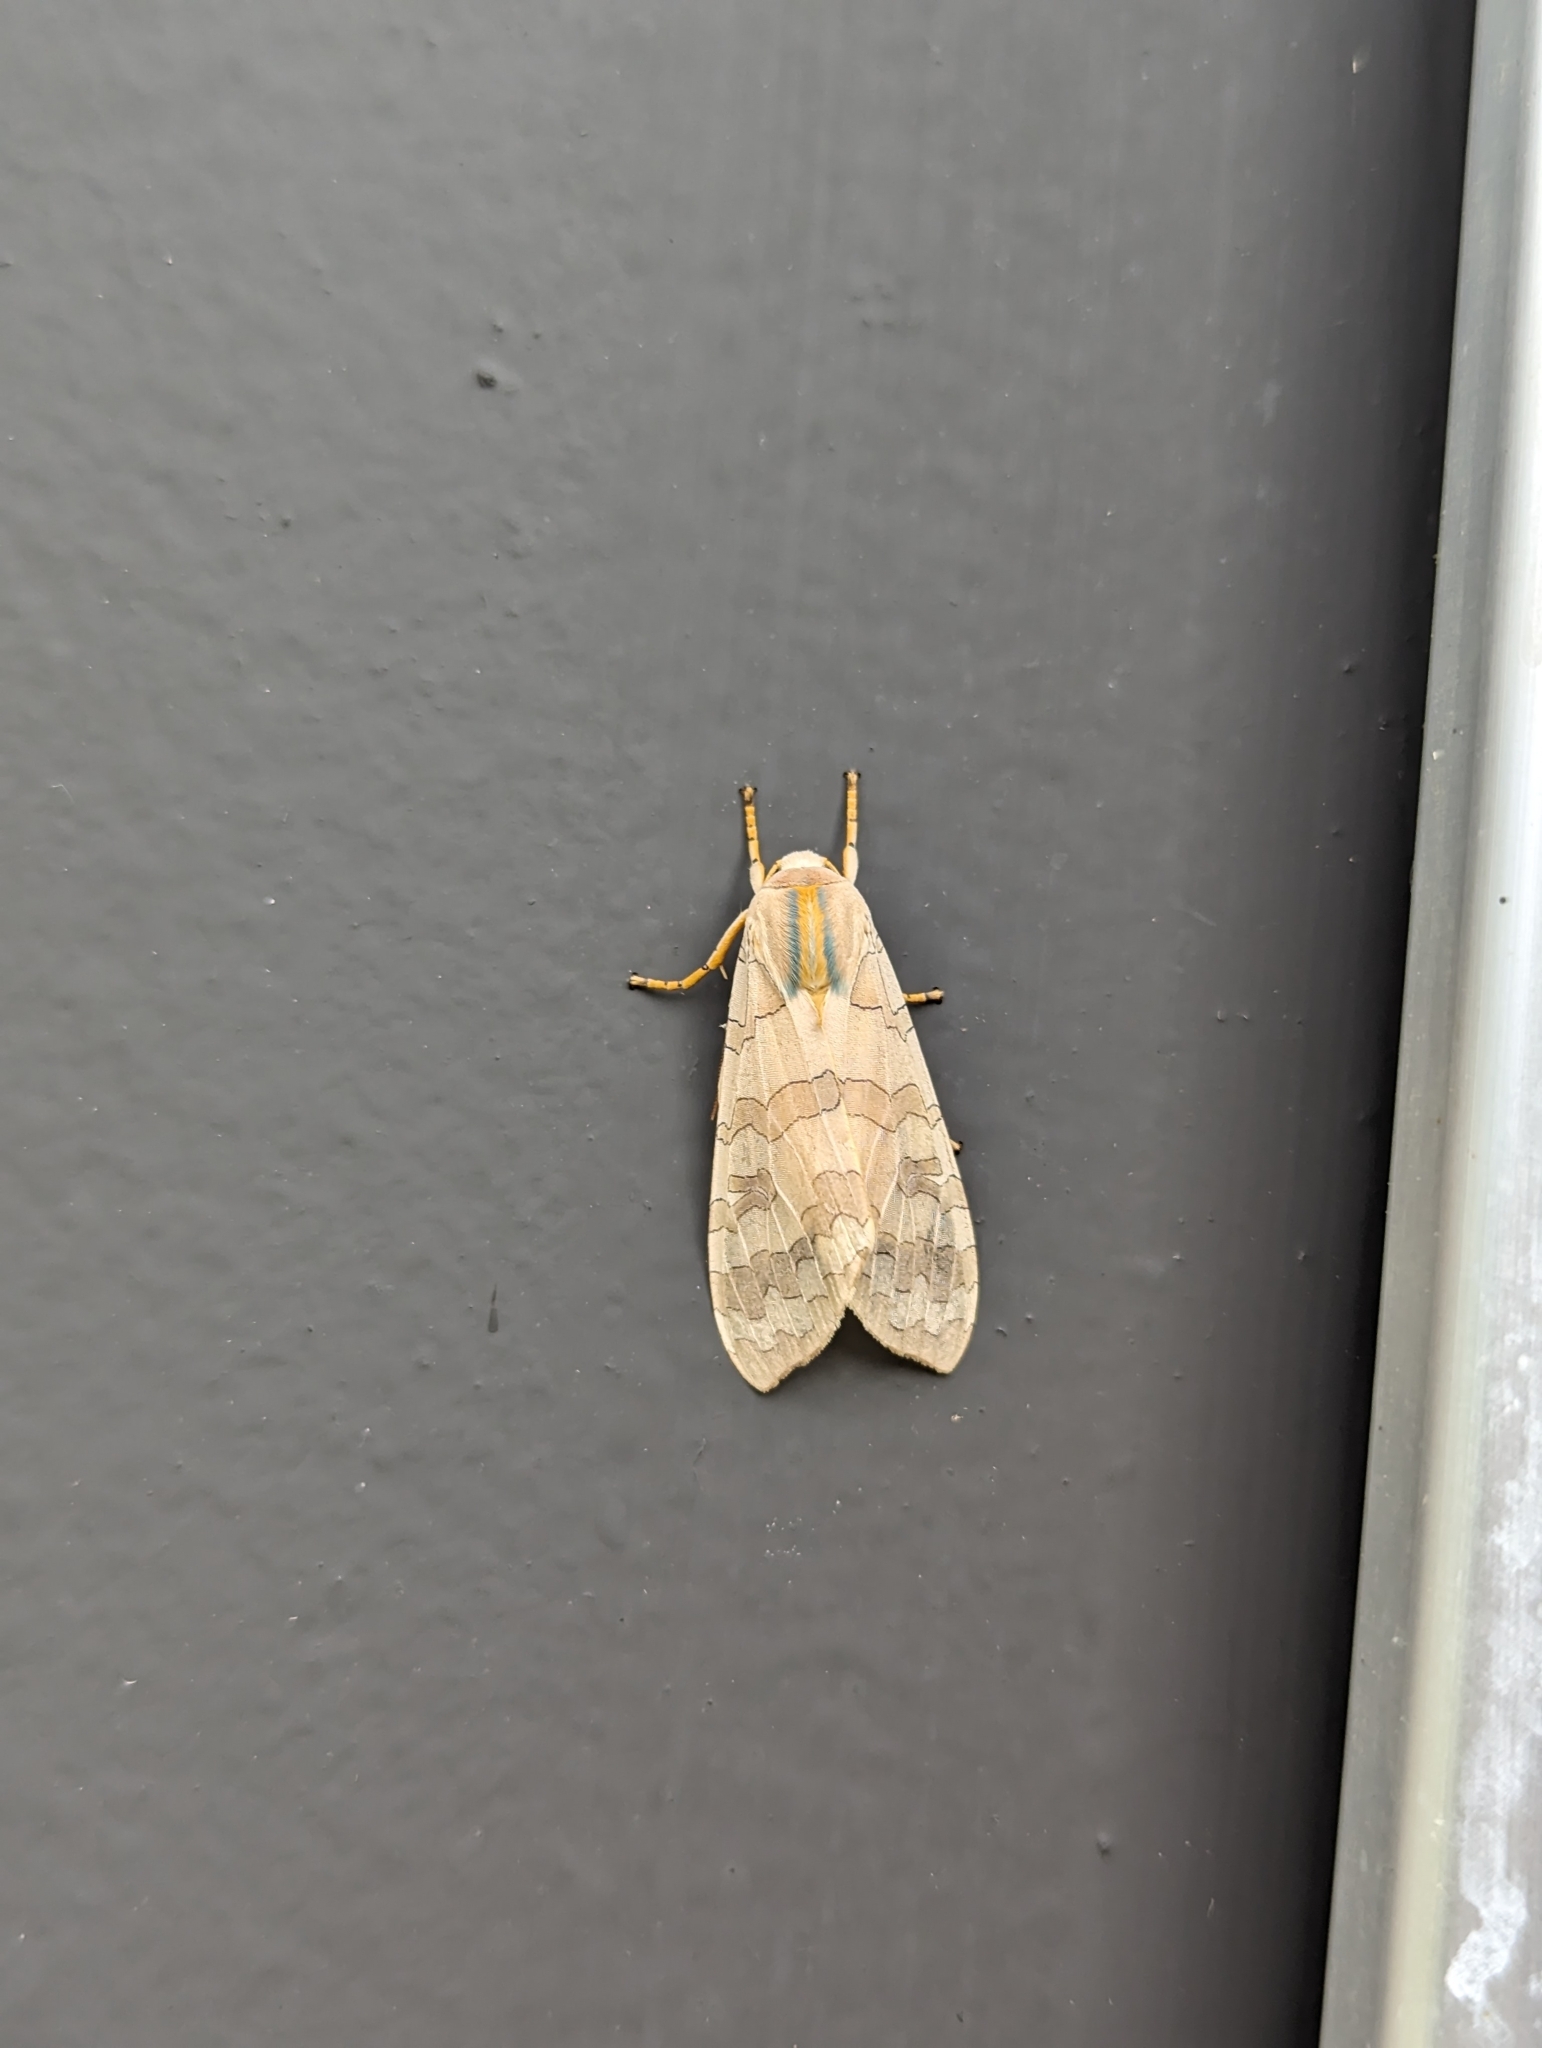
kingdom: Animalia
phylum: Arthropoda
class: Insecta
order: Lepidoptera
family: Erebidae
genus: Halysidota
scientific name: Halysidota
